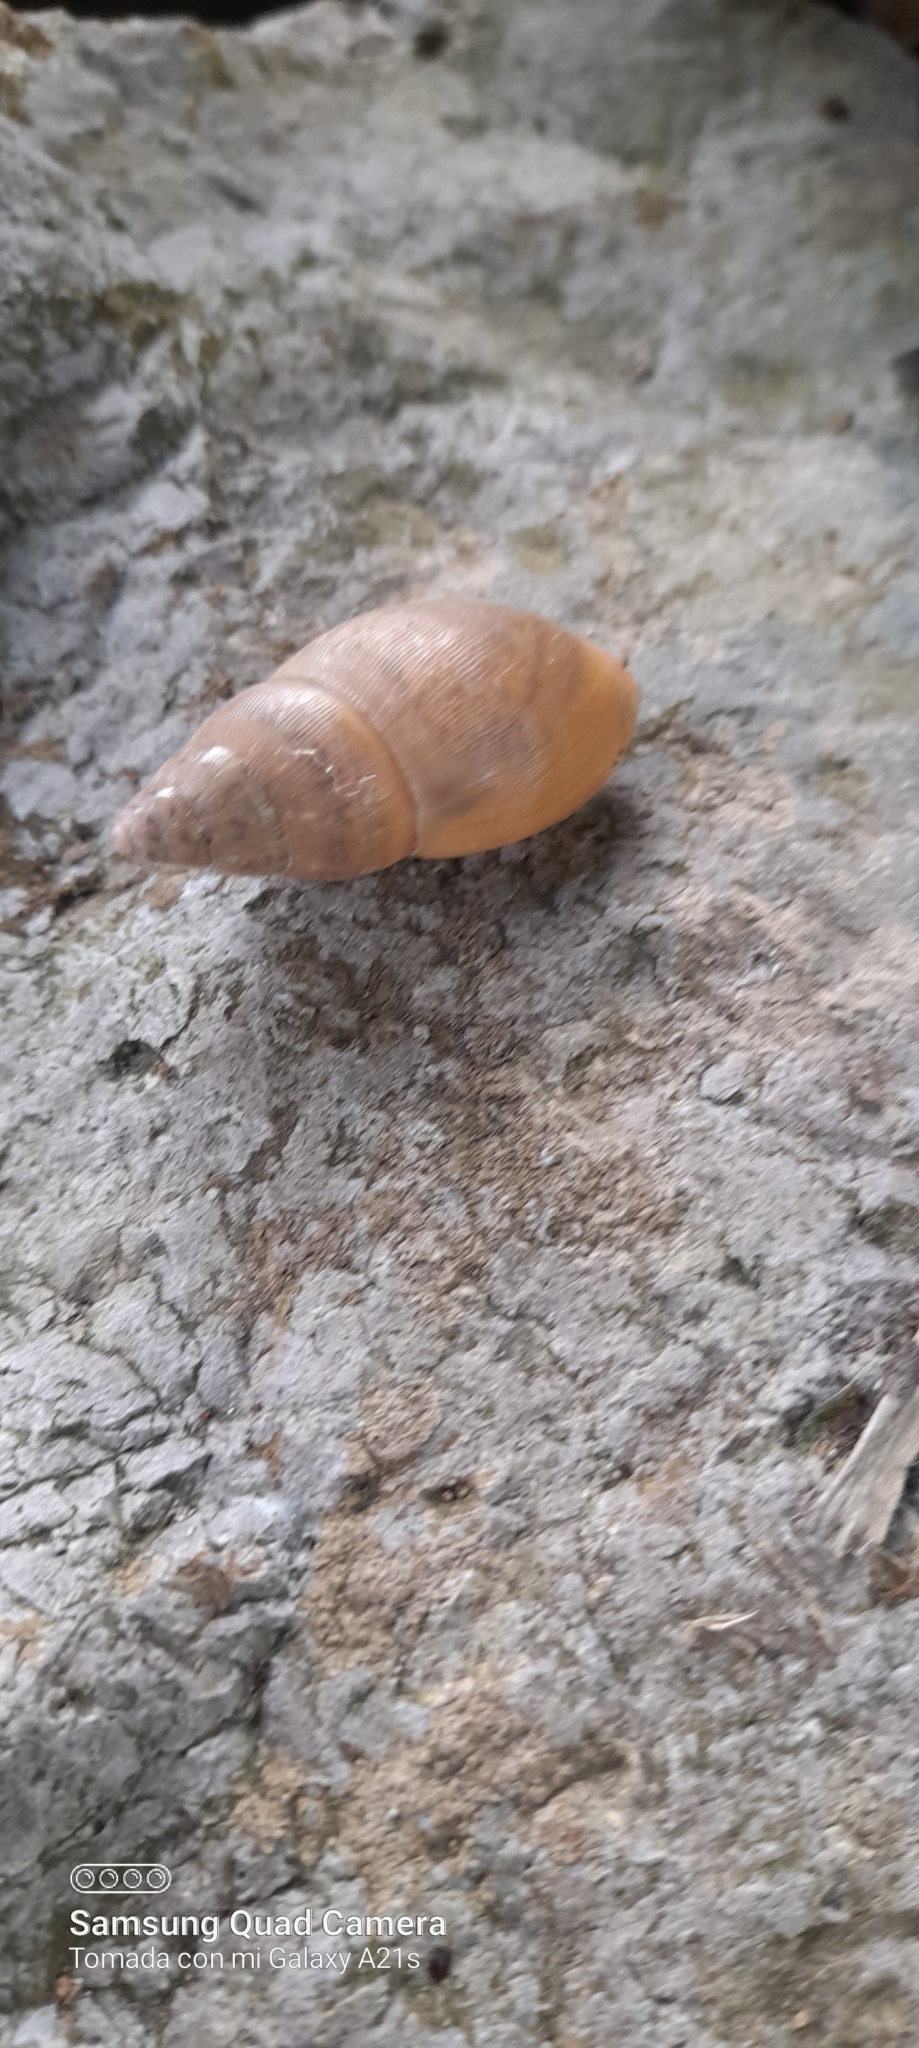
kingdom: Animalia
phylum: Mollusca
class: Gastropoda
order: Stylommatophora
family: Spiraxidae
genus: Euglandina
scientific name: Euglandina striata
